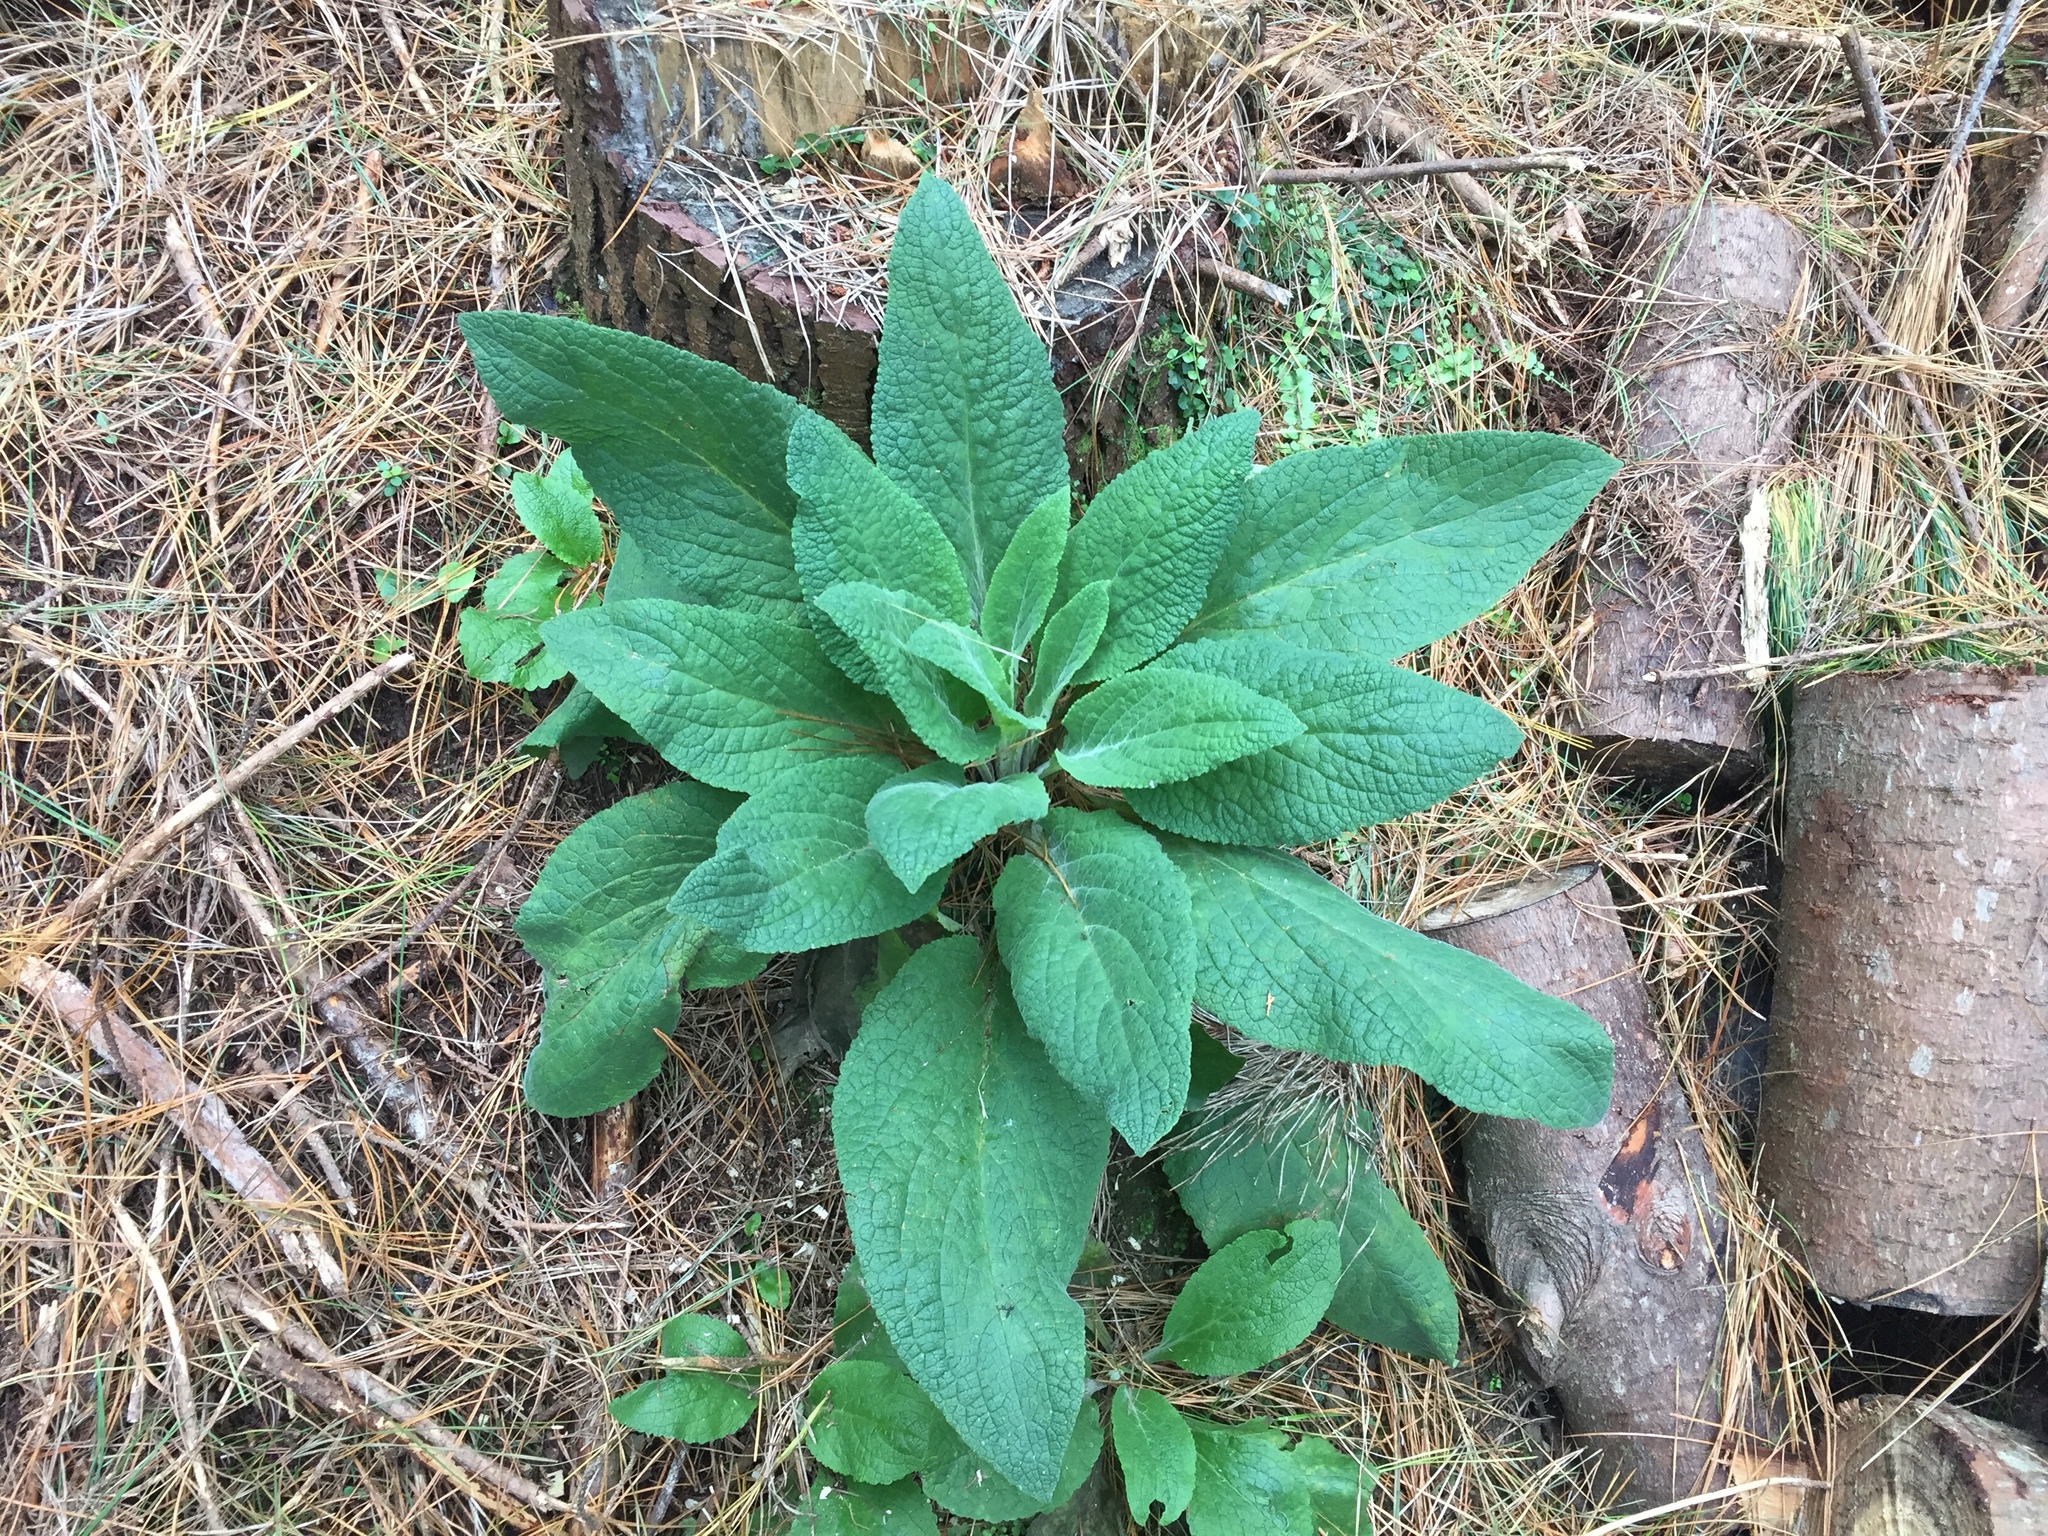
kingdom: Plantae
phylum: Tracheophyta
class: Magnoliopsida
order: Lamiales
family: Plantaginaceae
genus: Digitalis
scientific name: Digitalis purpurea
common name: Foxglove
